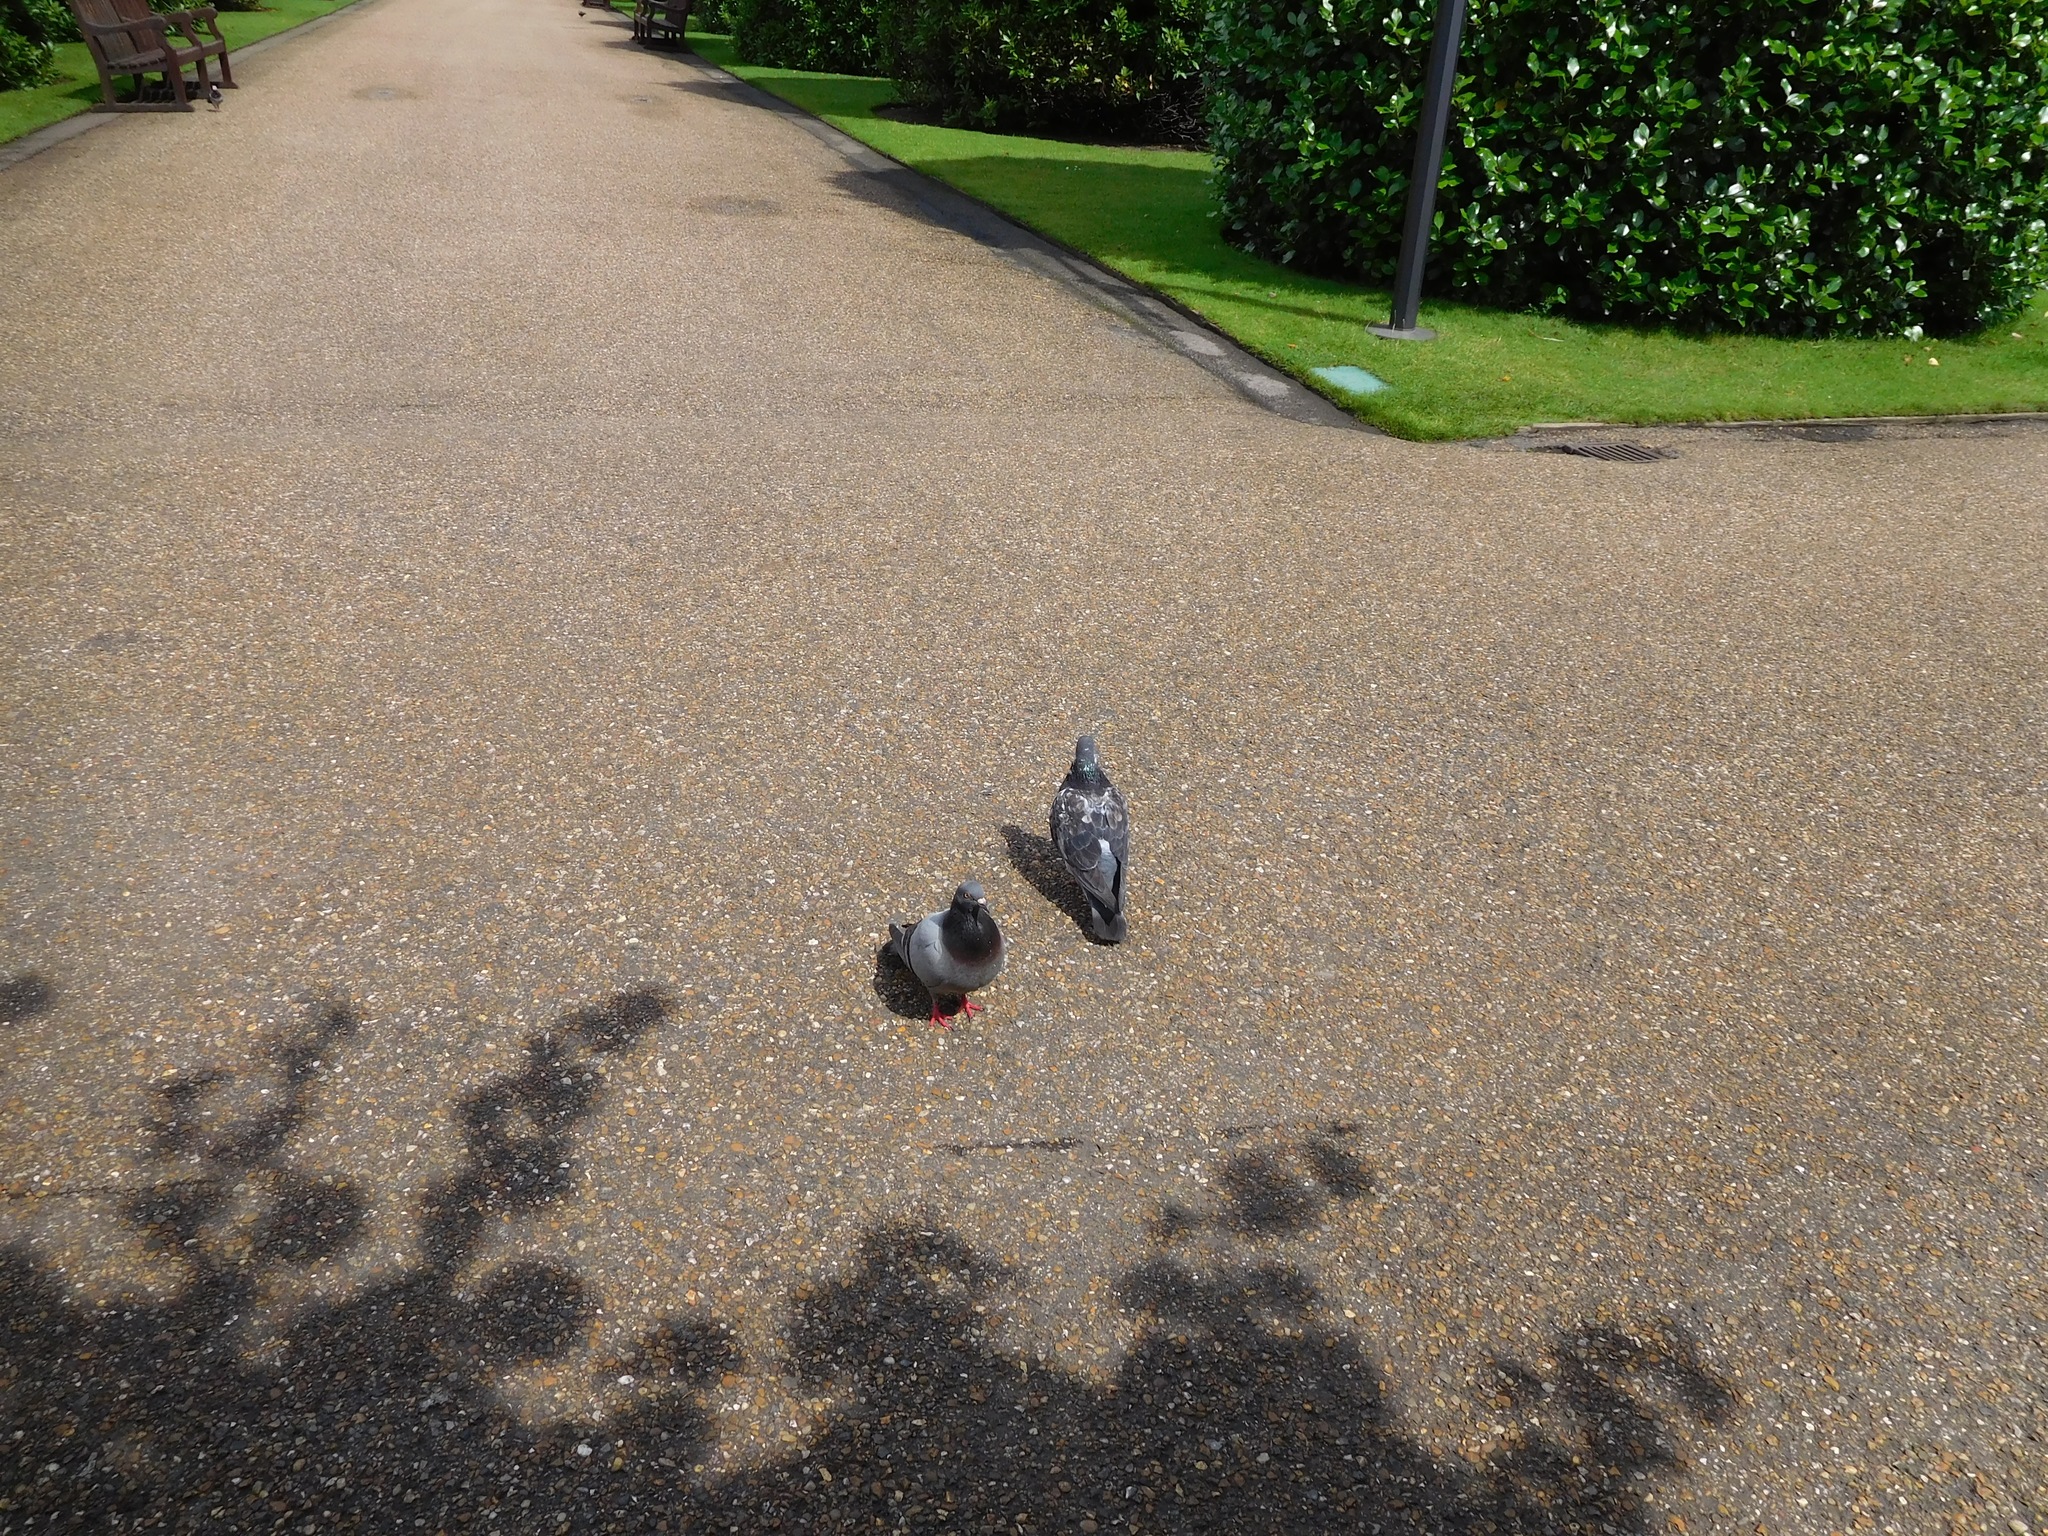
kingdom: Animalia
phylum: Chordata
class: Aves
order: Columbiformes
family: Columbidae
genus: Columba
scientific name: Columba livia
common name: Rock pigeon
